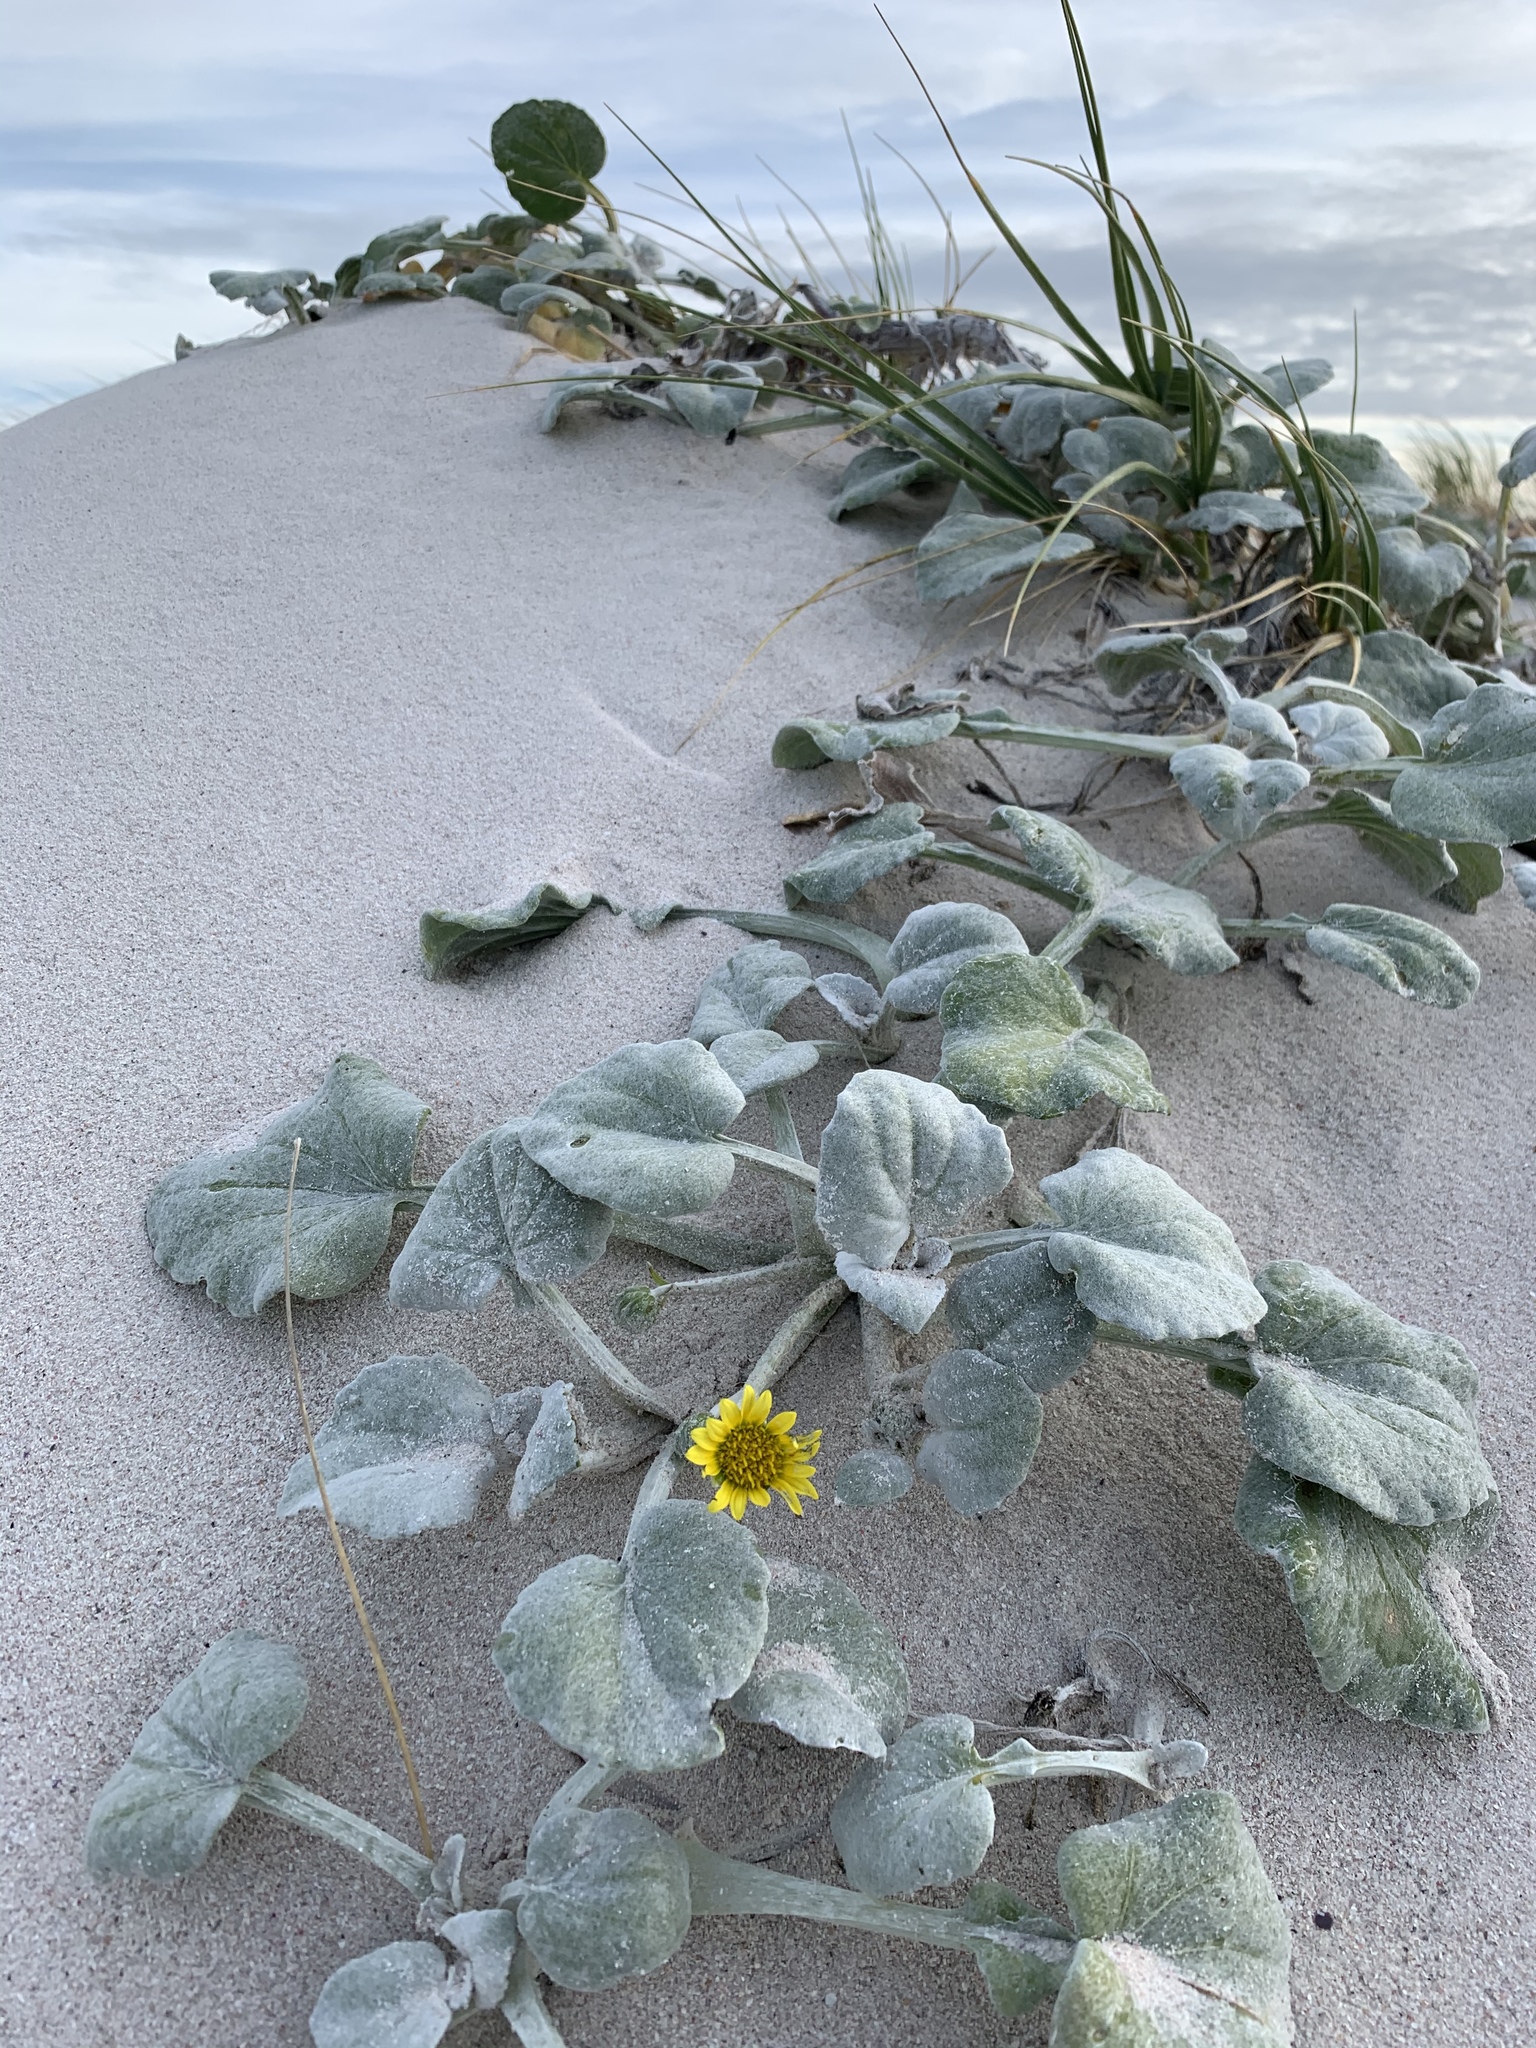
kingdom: Plantae
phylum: Tracheophyta
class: Magnoliopsida
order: Asterales
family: Asteraceae
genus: Arctotheca
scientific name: Arctotheca populifolia
